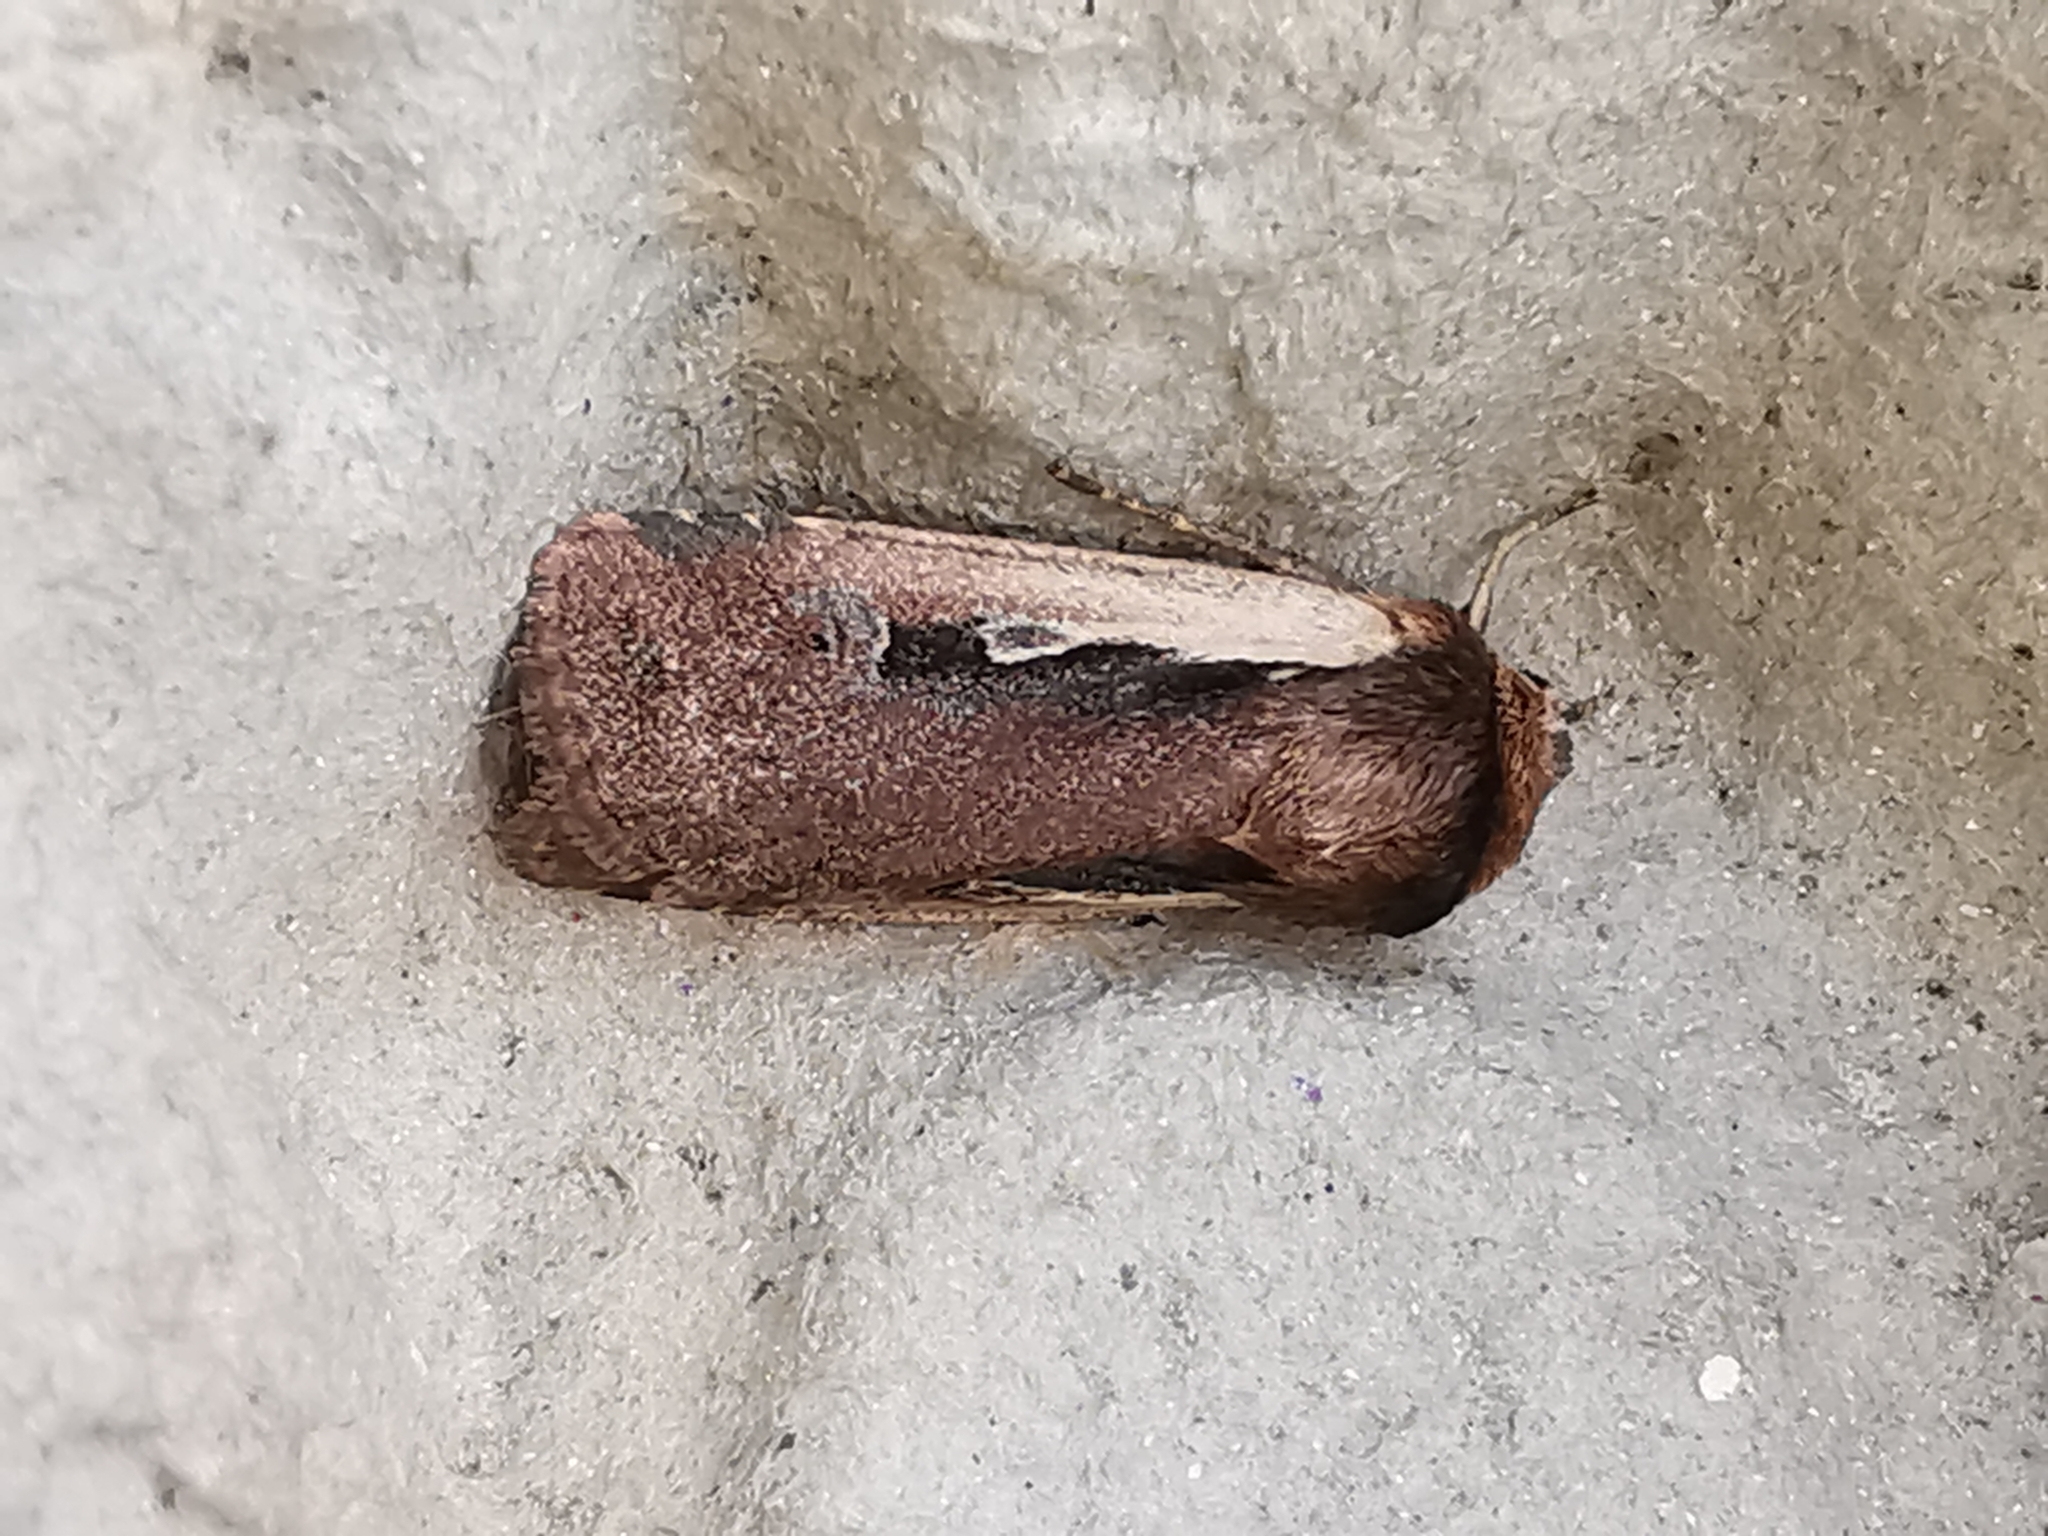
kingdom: Animalia
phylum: Arthropoda
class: Insecta
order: Lepidoptera
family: Noctuidae
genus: Ochropleura
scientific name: Ochropleura plecta
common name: Flame shoulder
